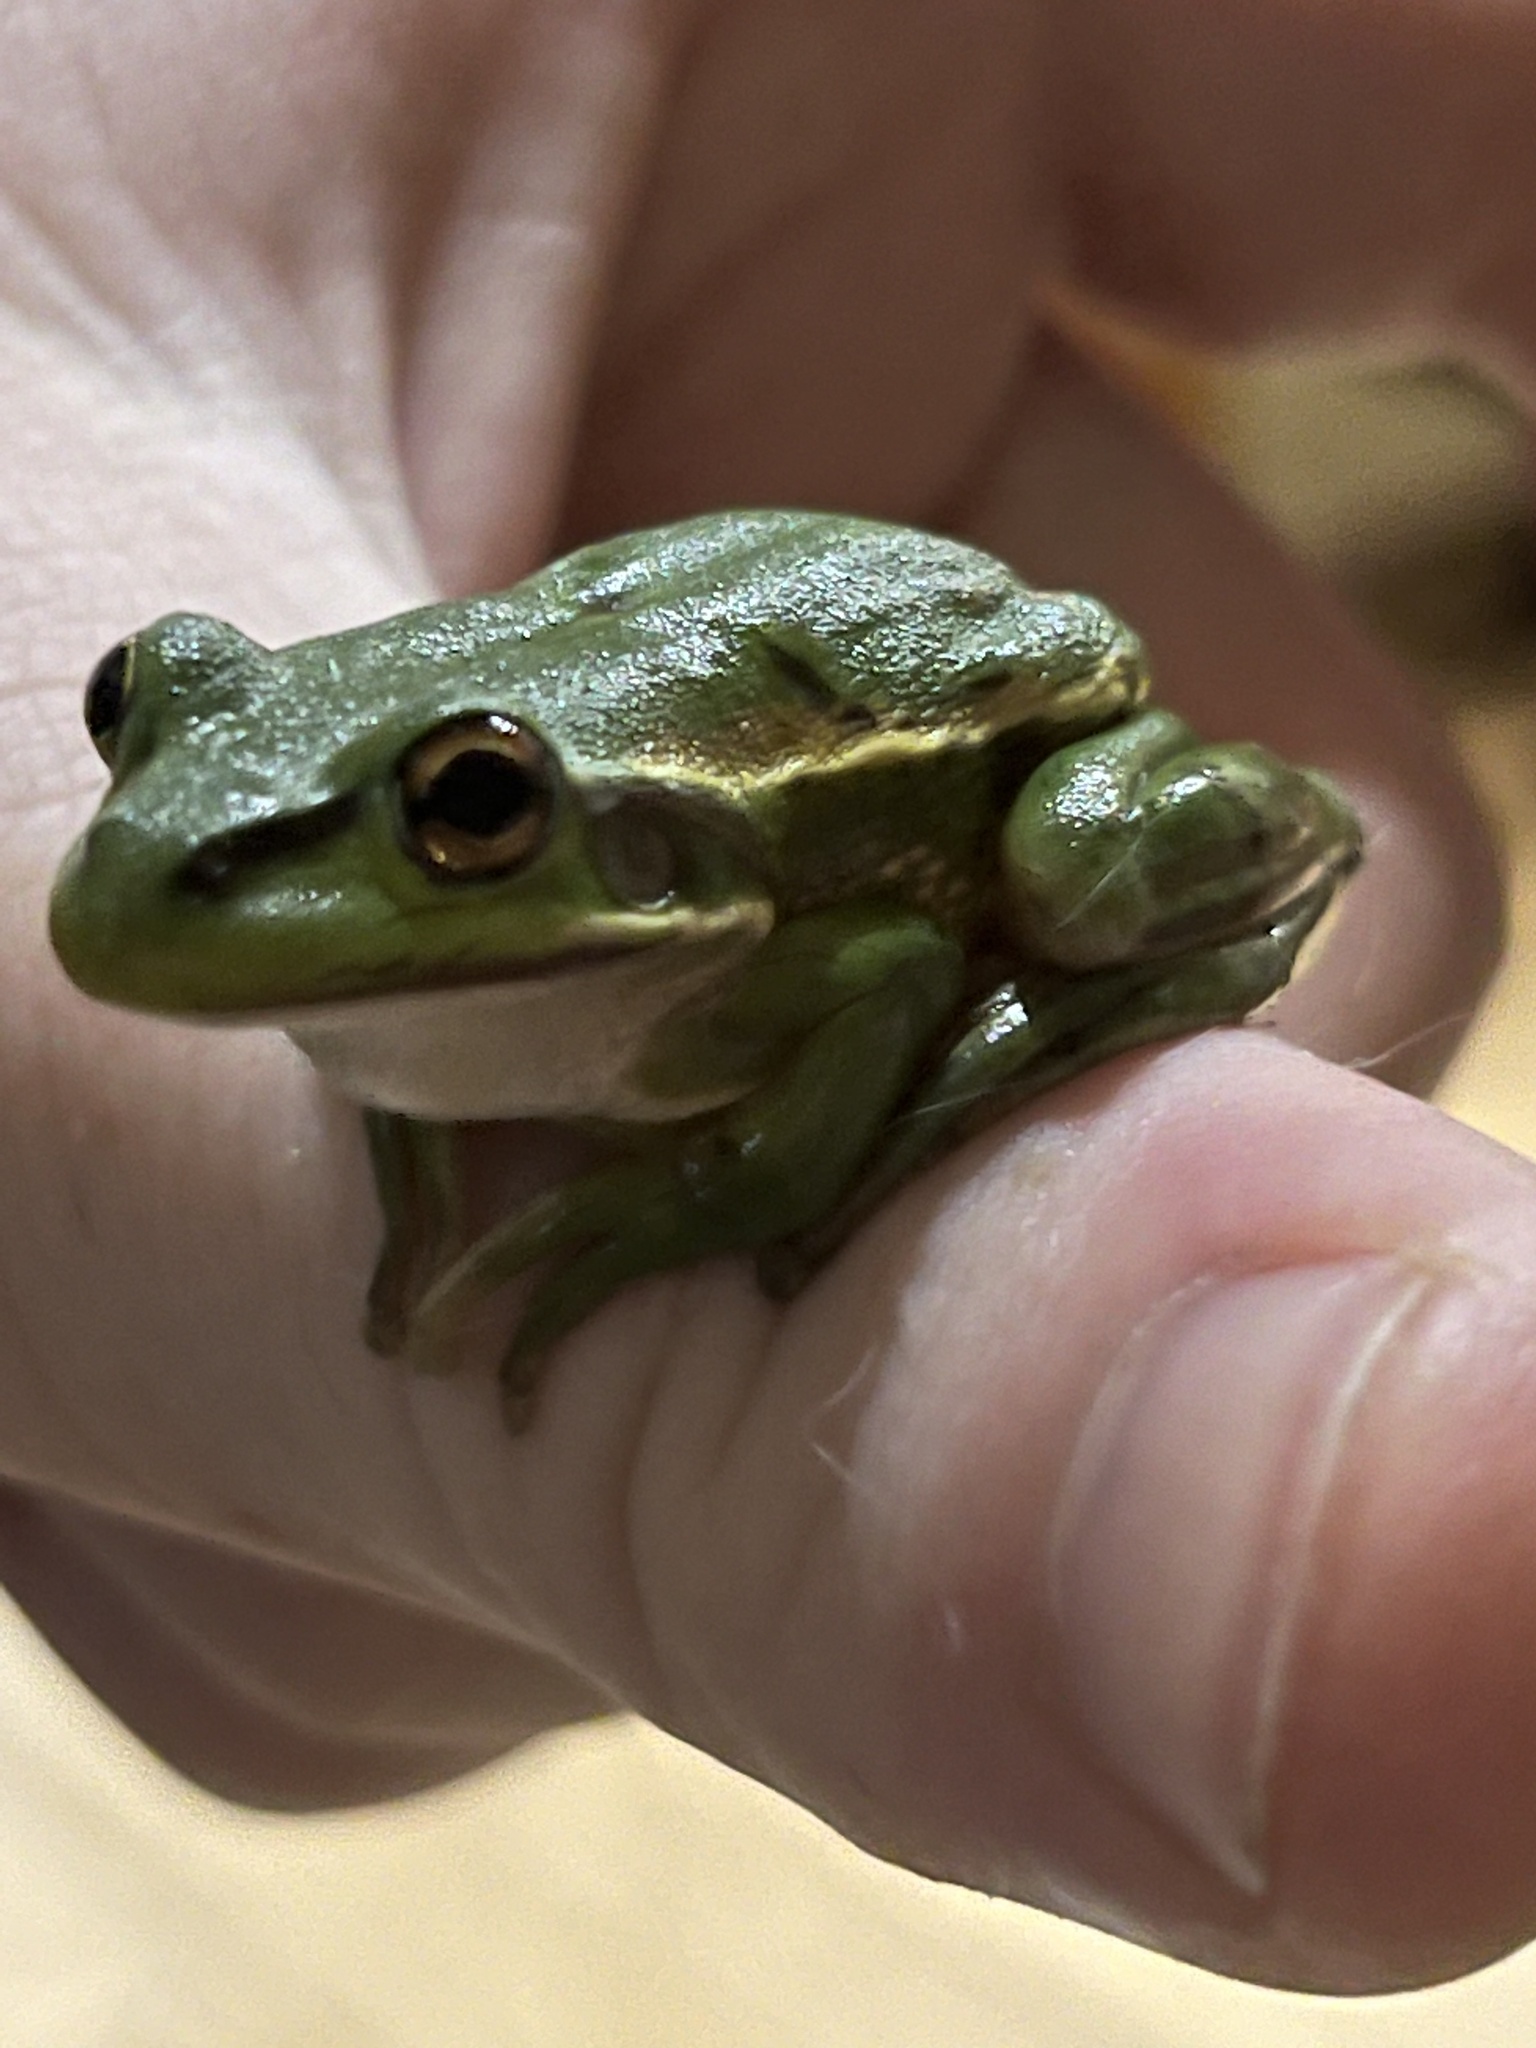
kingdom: Animalia
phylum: Chordata
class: Amphibia
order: Anura
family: Pelodryadidae
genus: Ranoidea
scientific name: Ranoidea aurea
